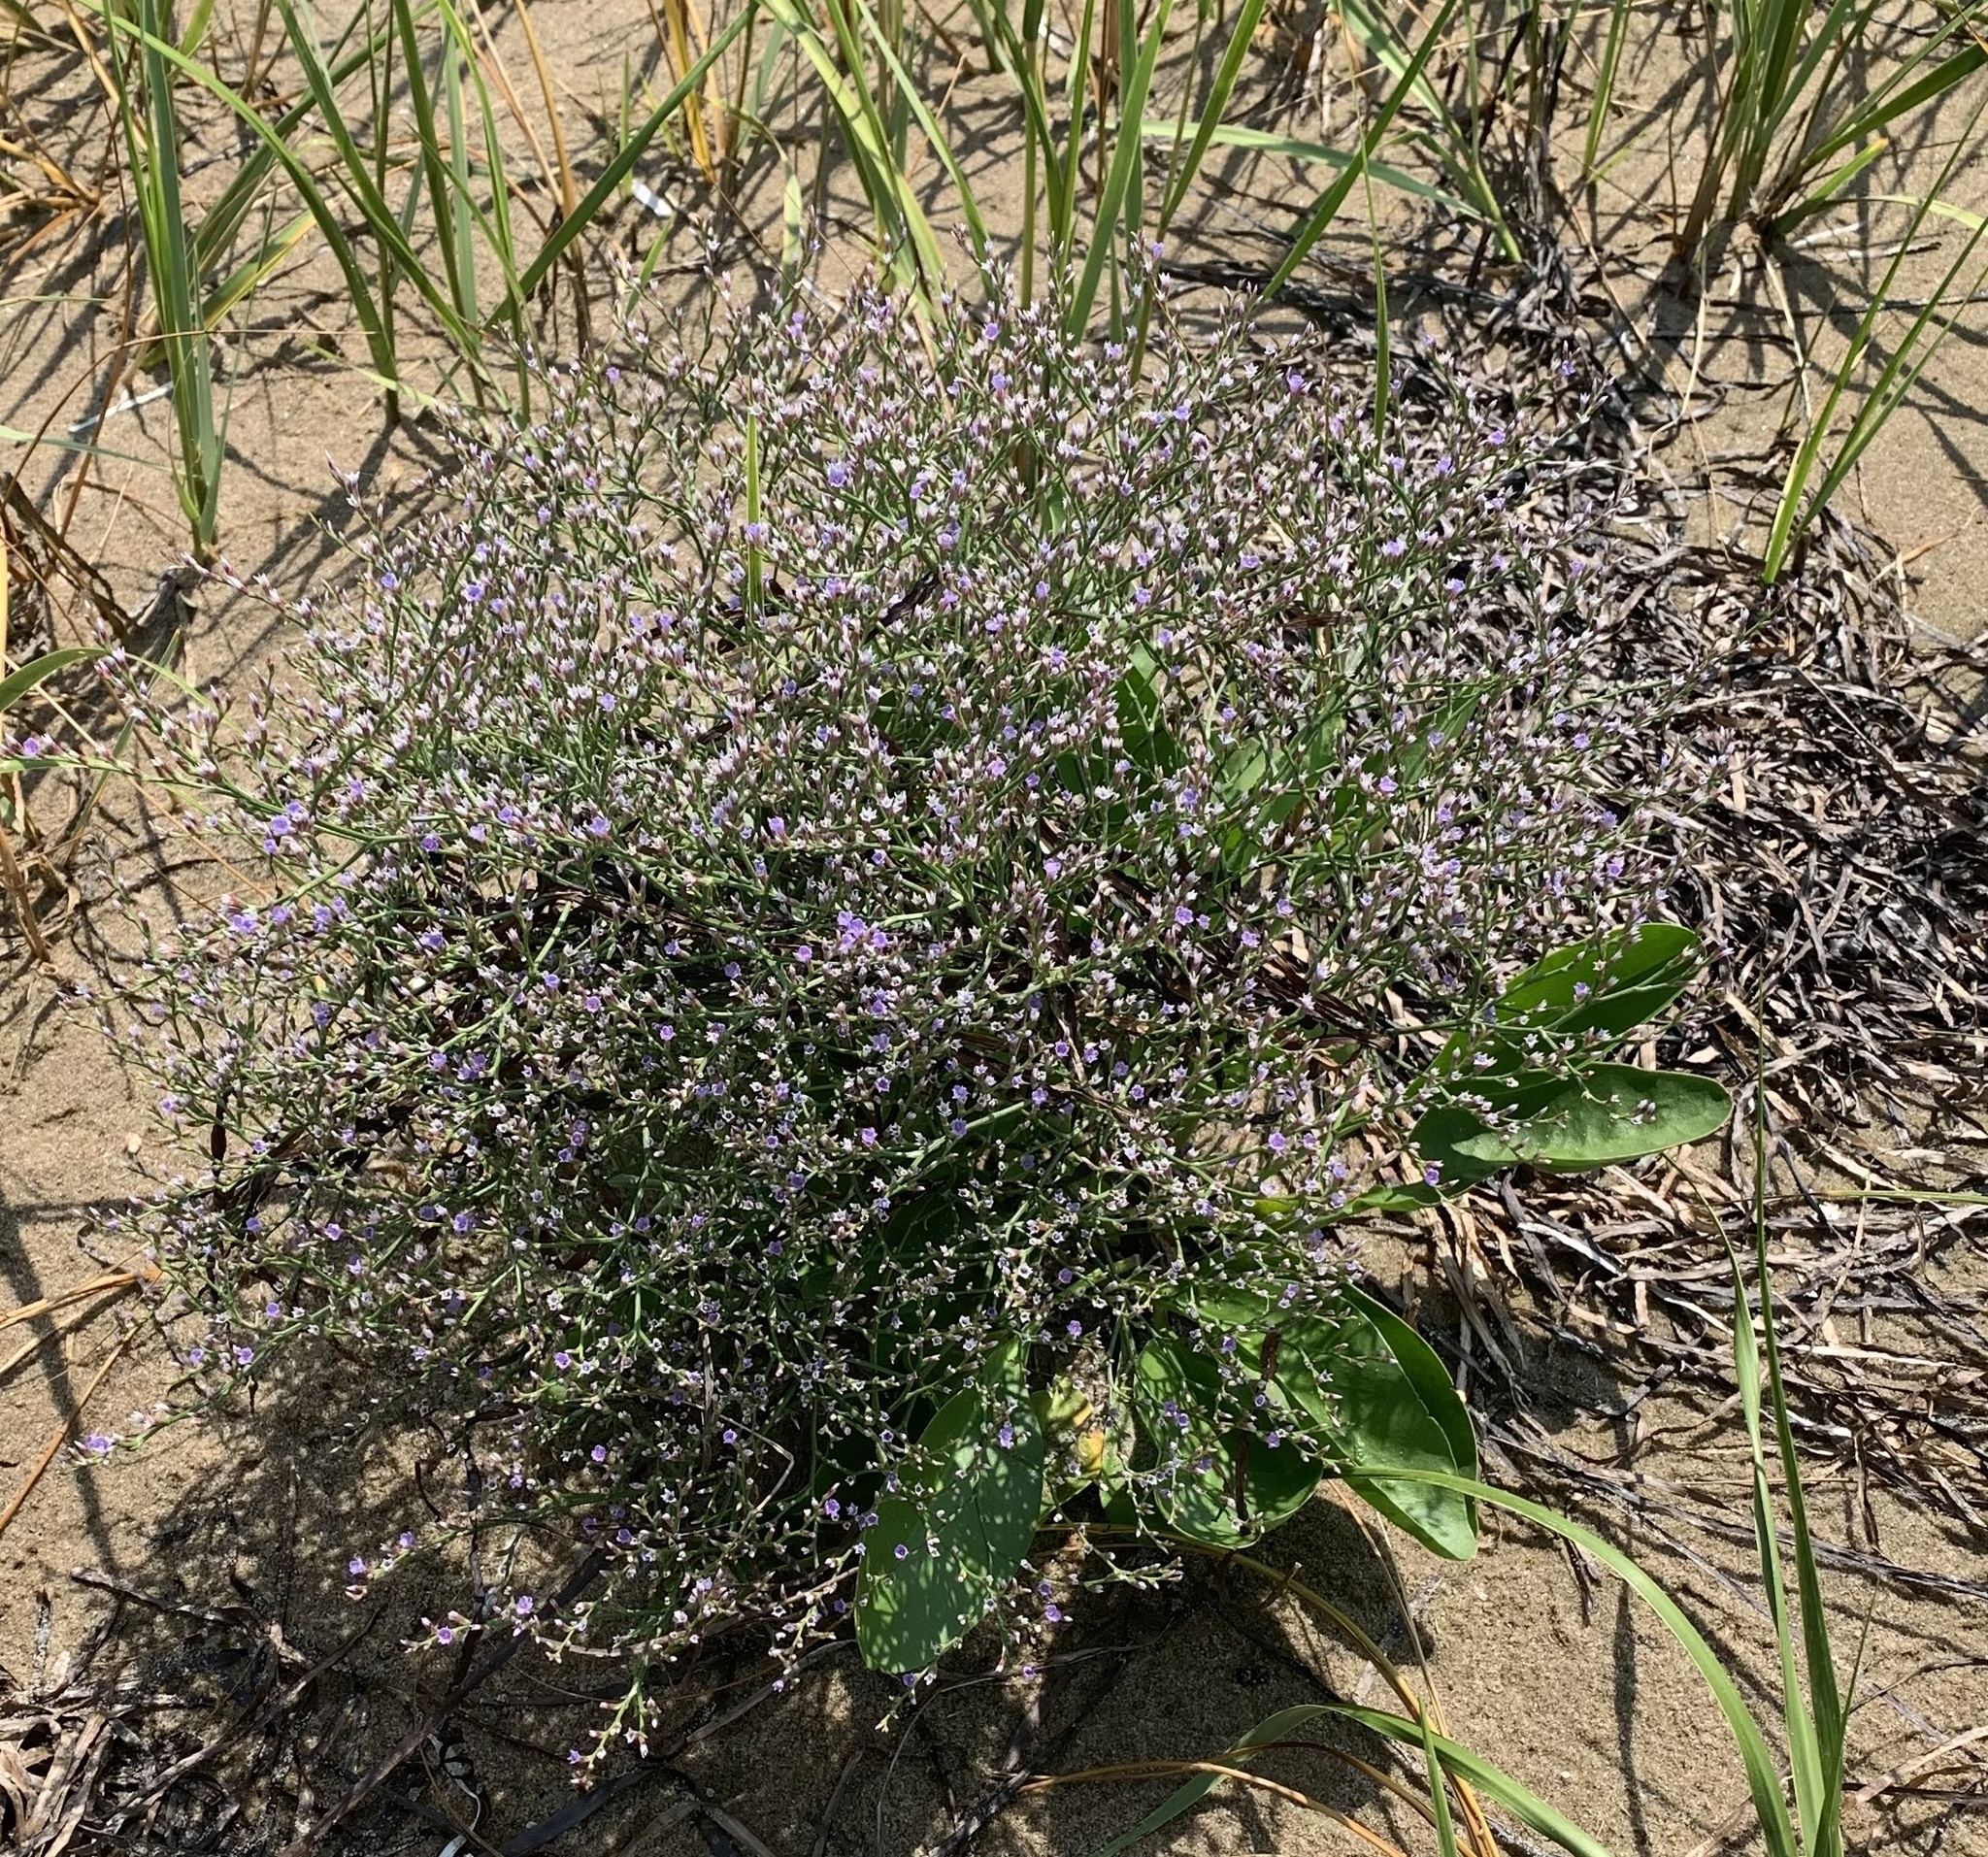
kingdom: Plantae
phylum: Tracheophyta
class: Magnoliopsida
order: Caryophyllales
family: Plumbaginaceae
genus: Limonium
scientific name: Limonium carolinianum
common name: Carolina sea lavender
